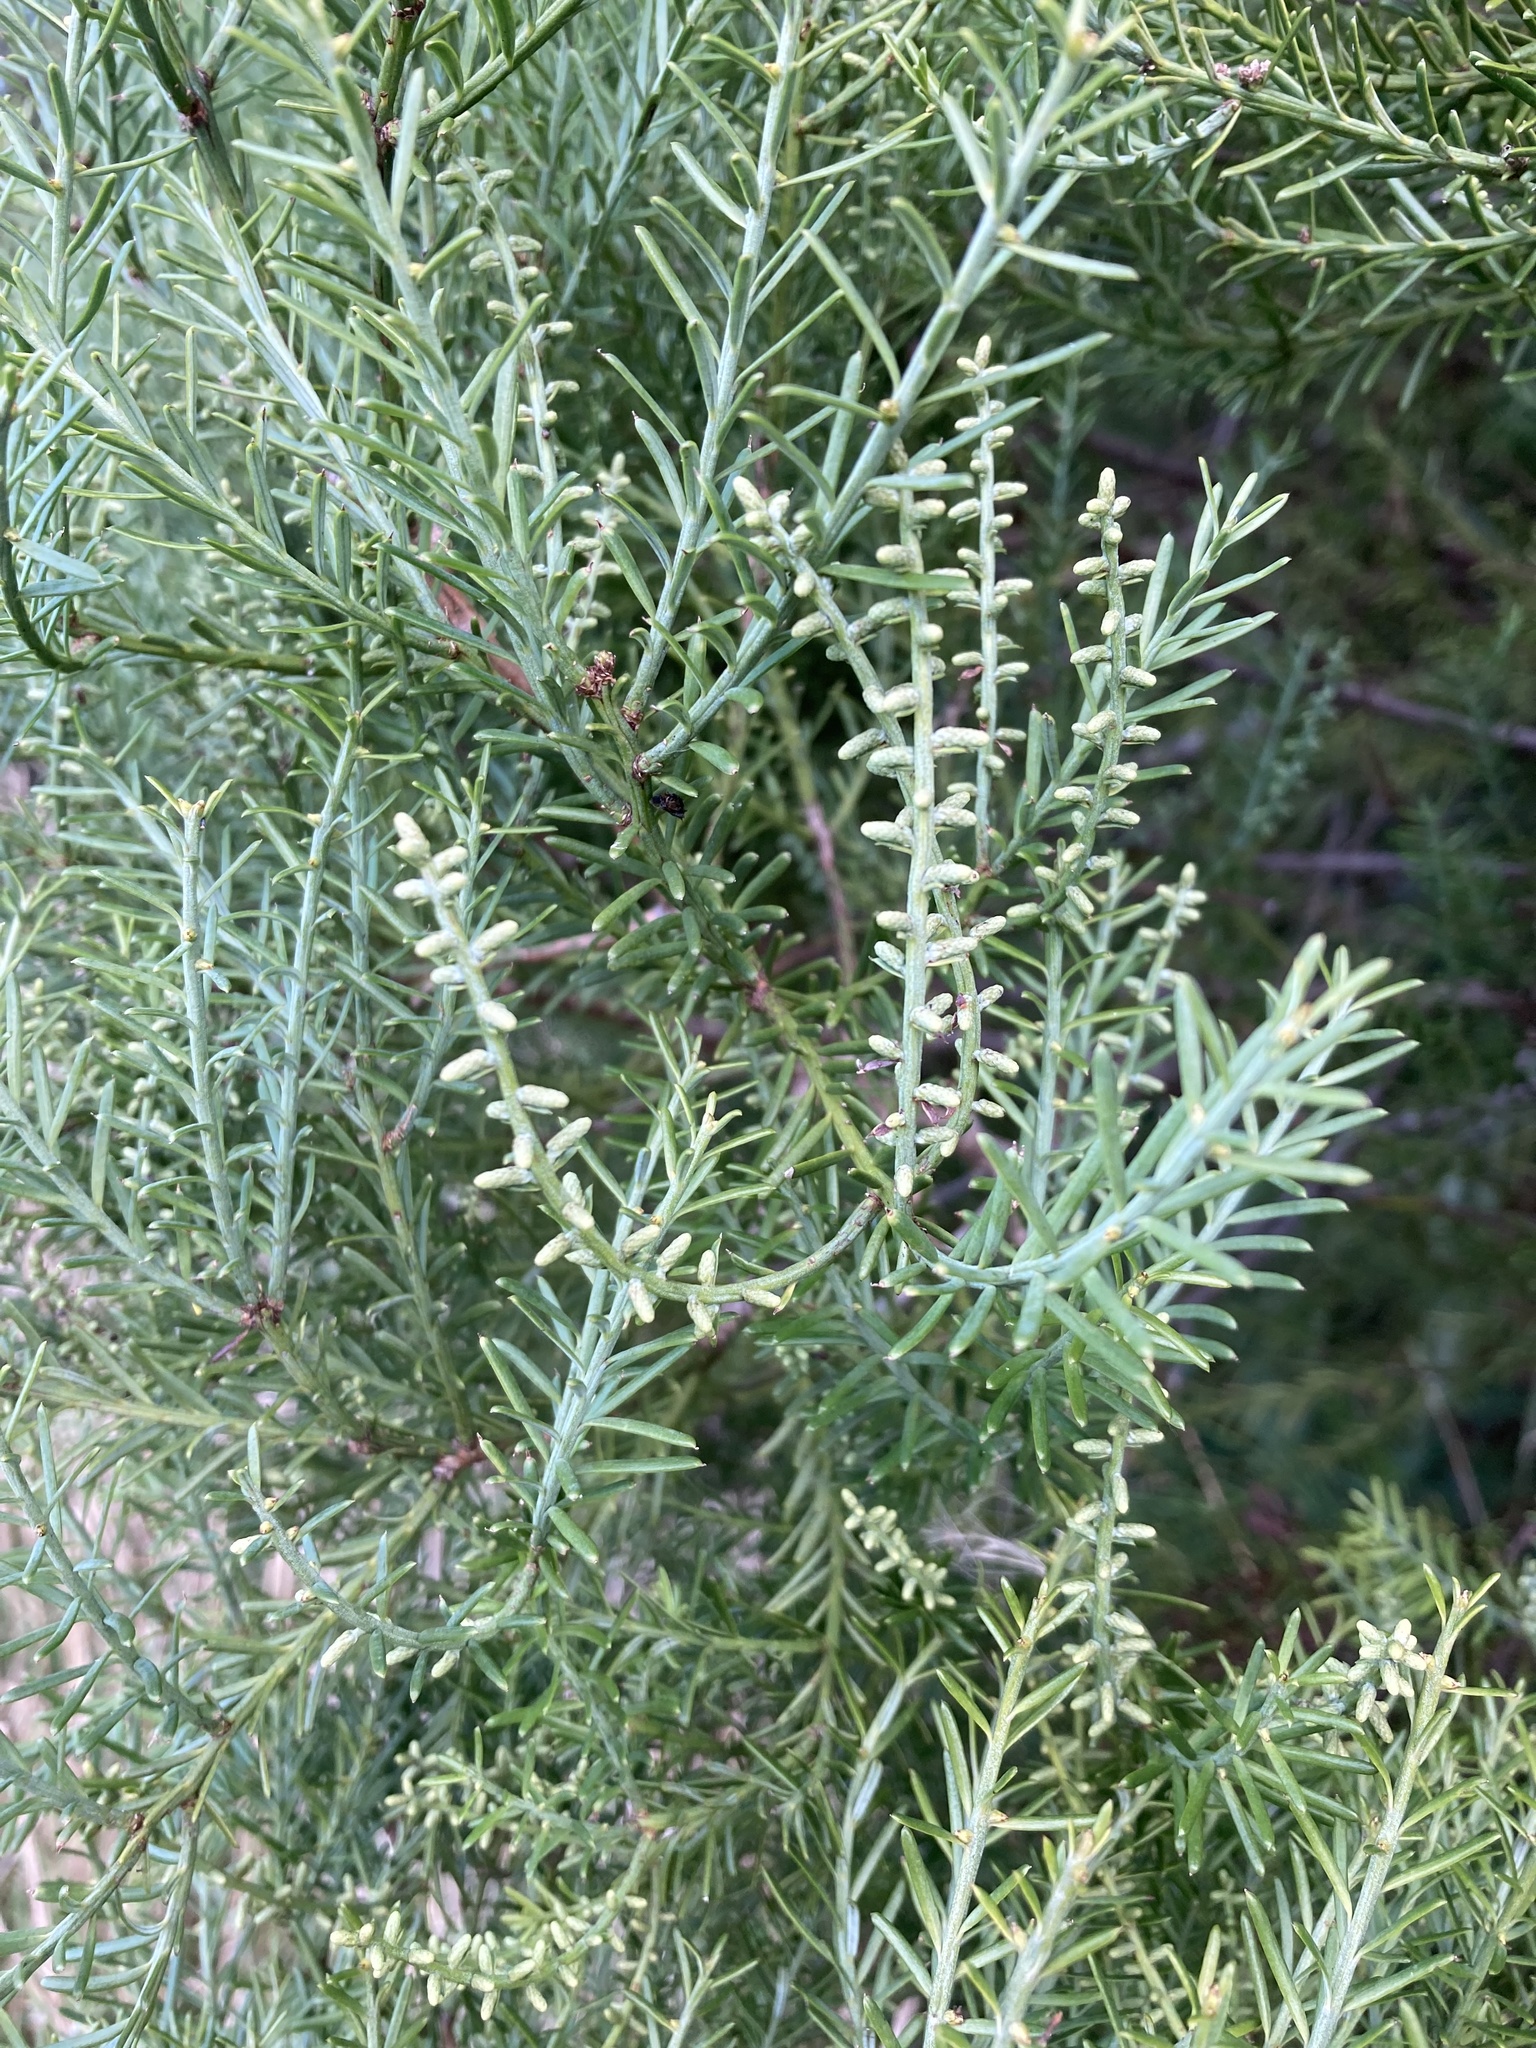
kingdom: Plantae
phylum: Tracheophyta
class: Pinopsida
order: Pinales
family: Podocarpaceae
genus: Prumnopitys
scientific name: Prumnopitys taxifolia
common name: Matai
